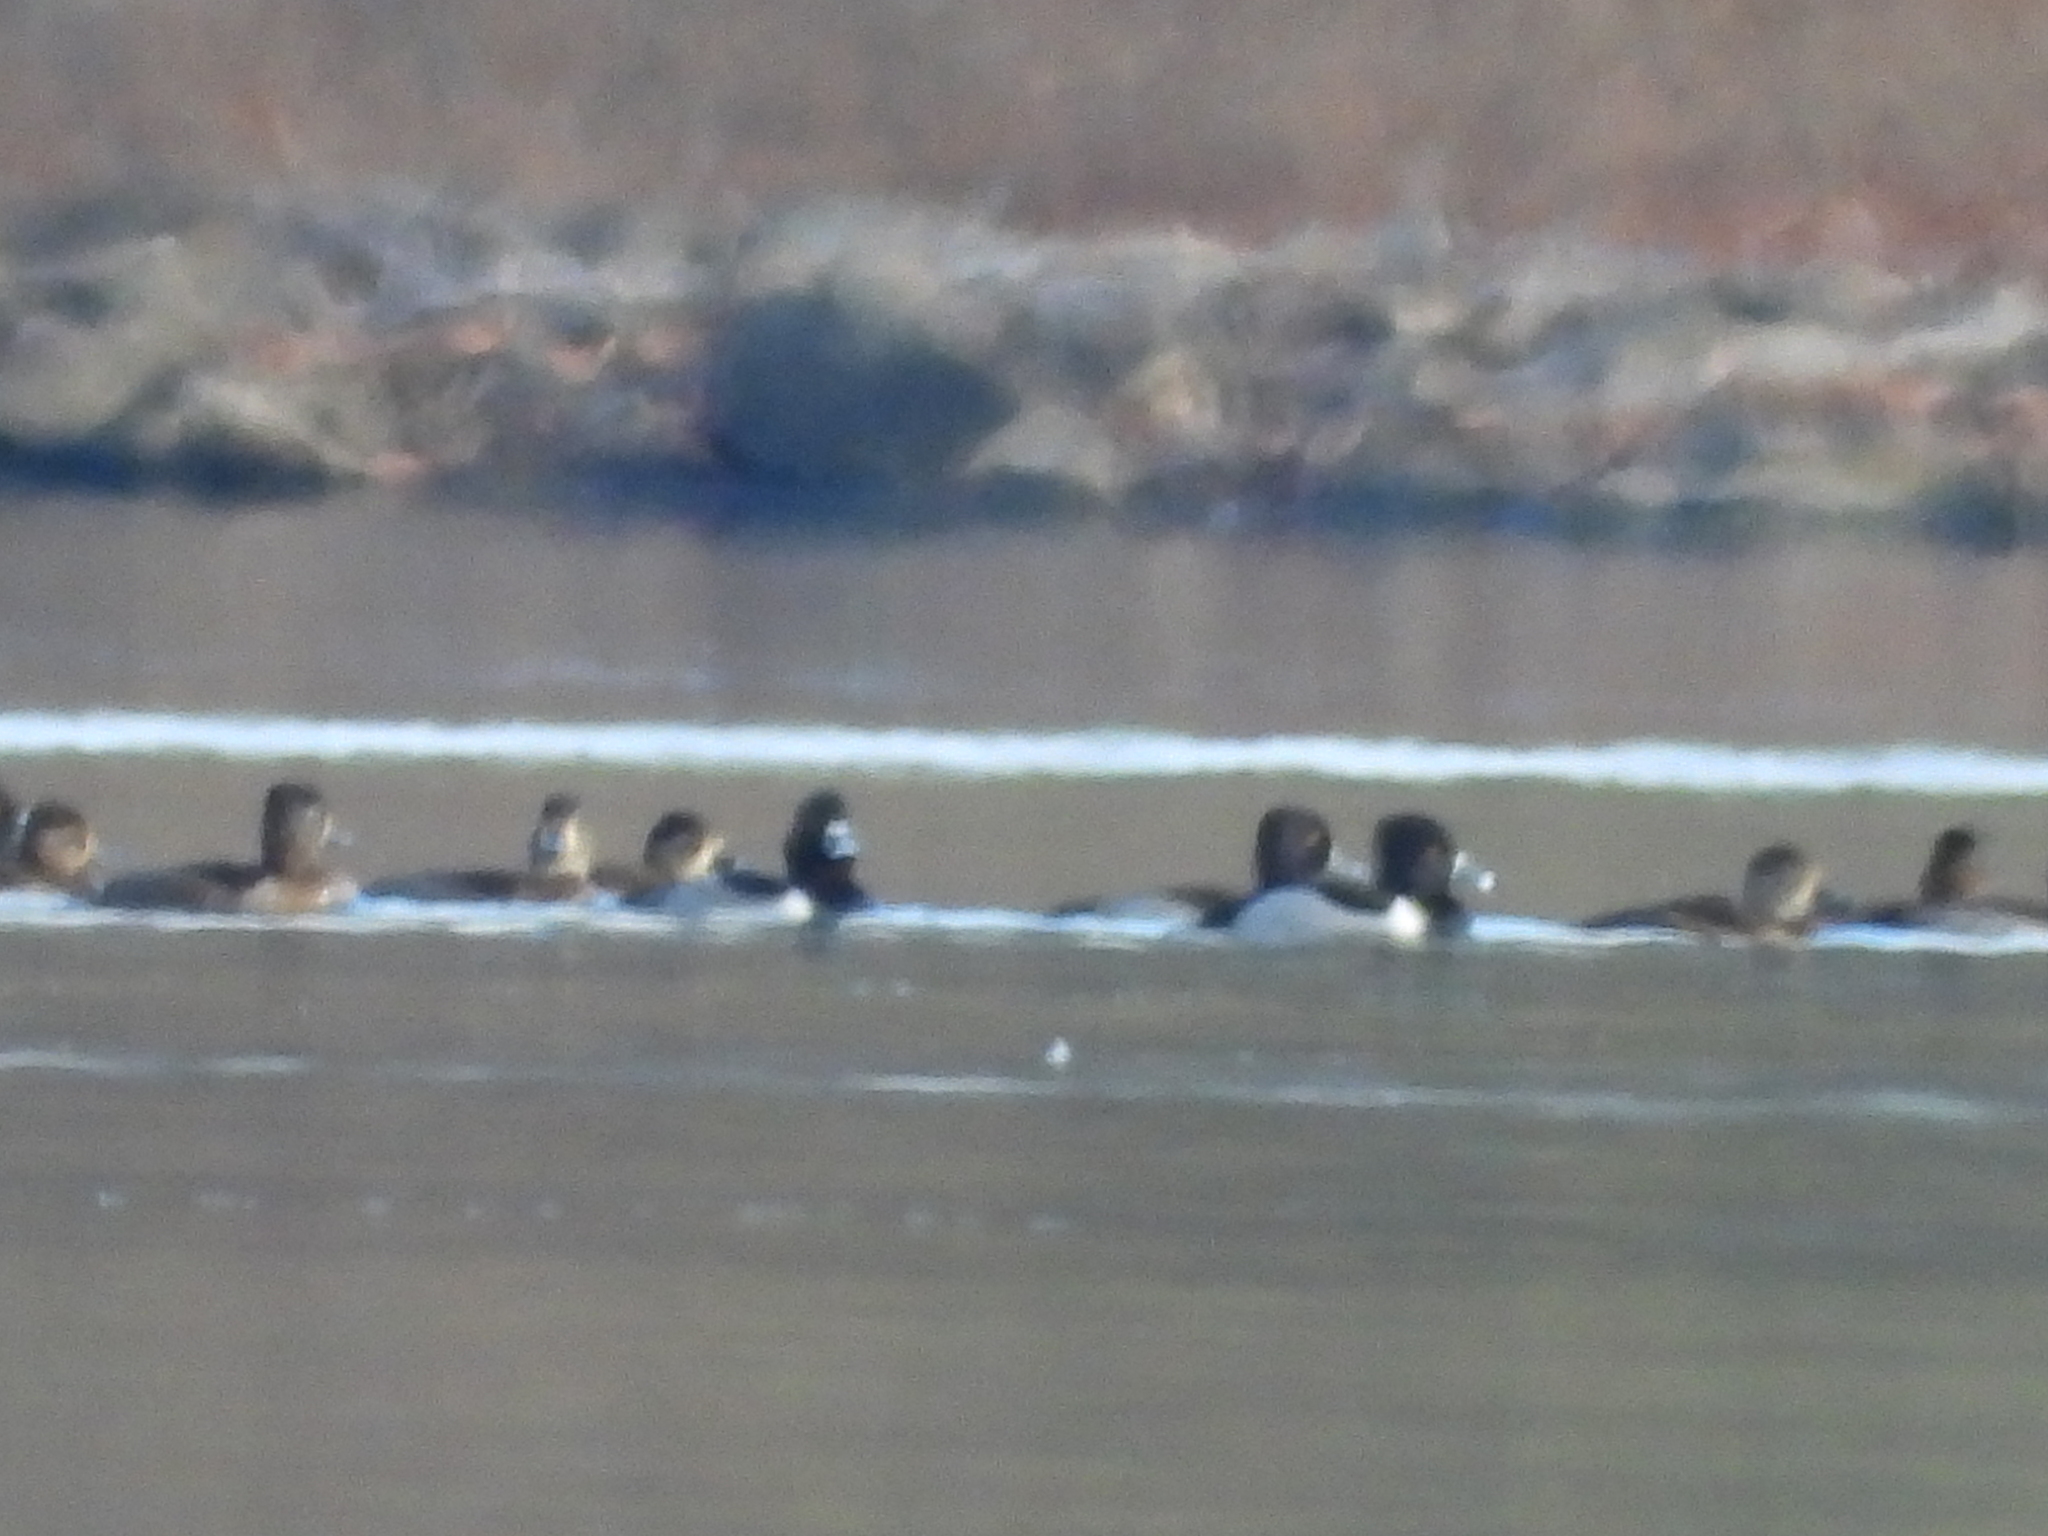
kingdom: Animalia
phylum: Chordata
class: Aves
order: Anseriformes
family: Anatidae
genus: Aythya
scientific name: Aythya collaris
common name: Ring-necked duck
